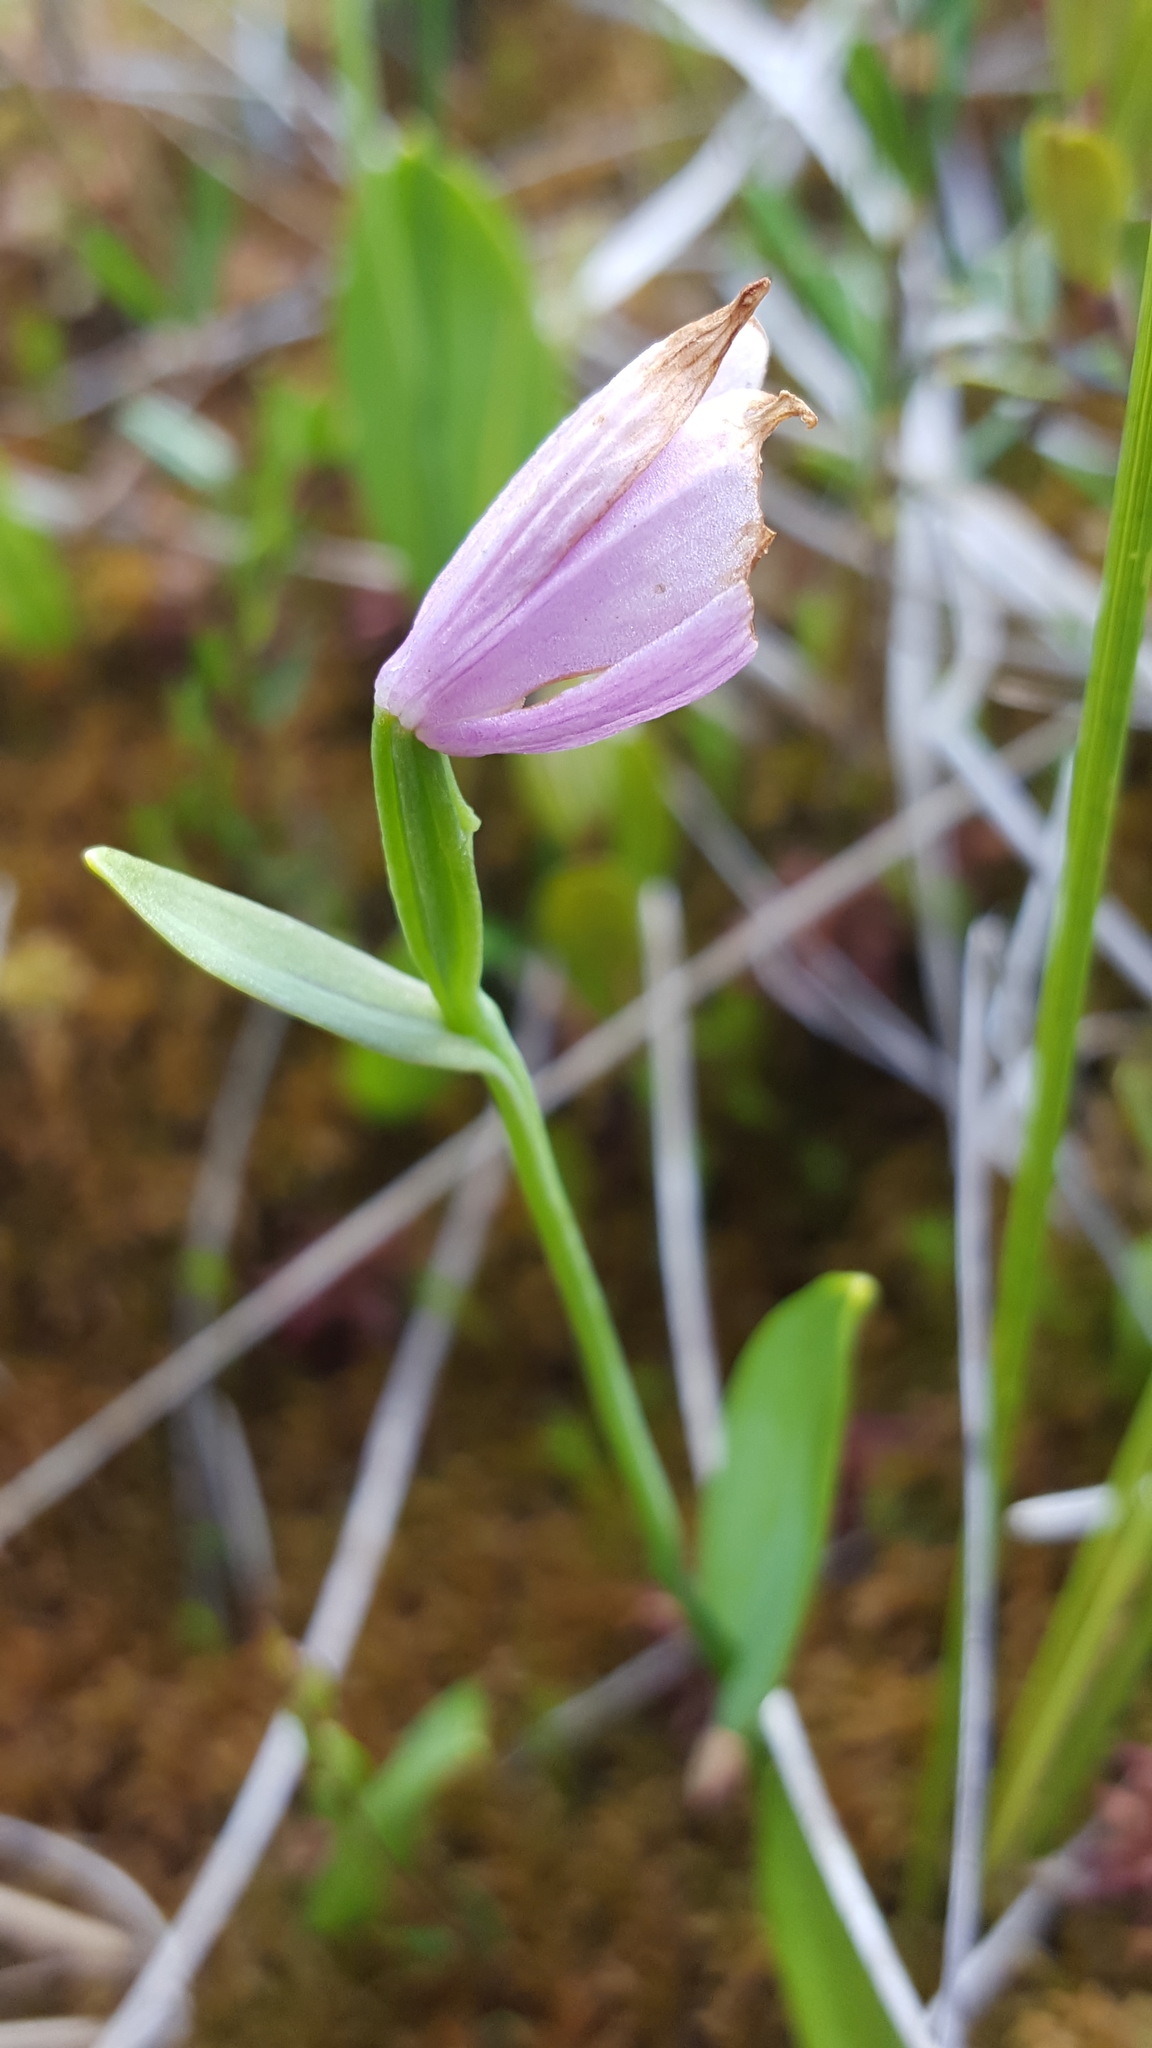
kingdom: Plantae
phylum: Tracheophyta
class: Liliopsida
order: Asparagales
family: Orchidaceae
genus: Pogonia
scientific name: Pogonia ophioglossoides
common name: Rose pogonia
